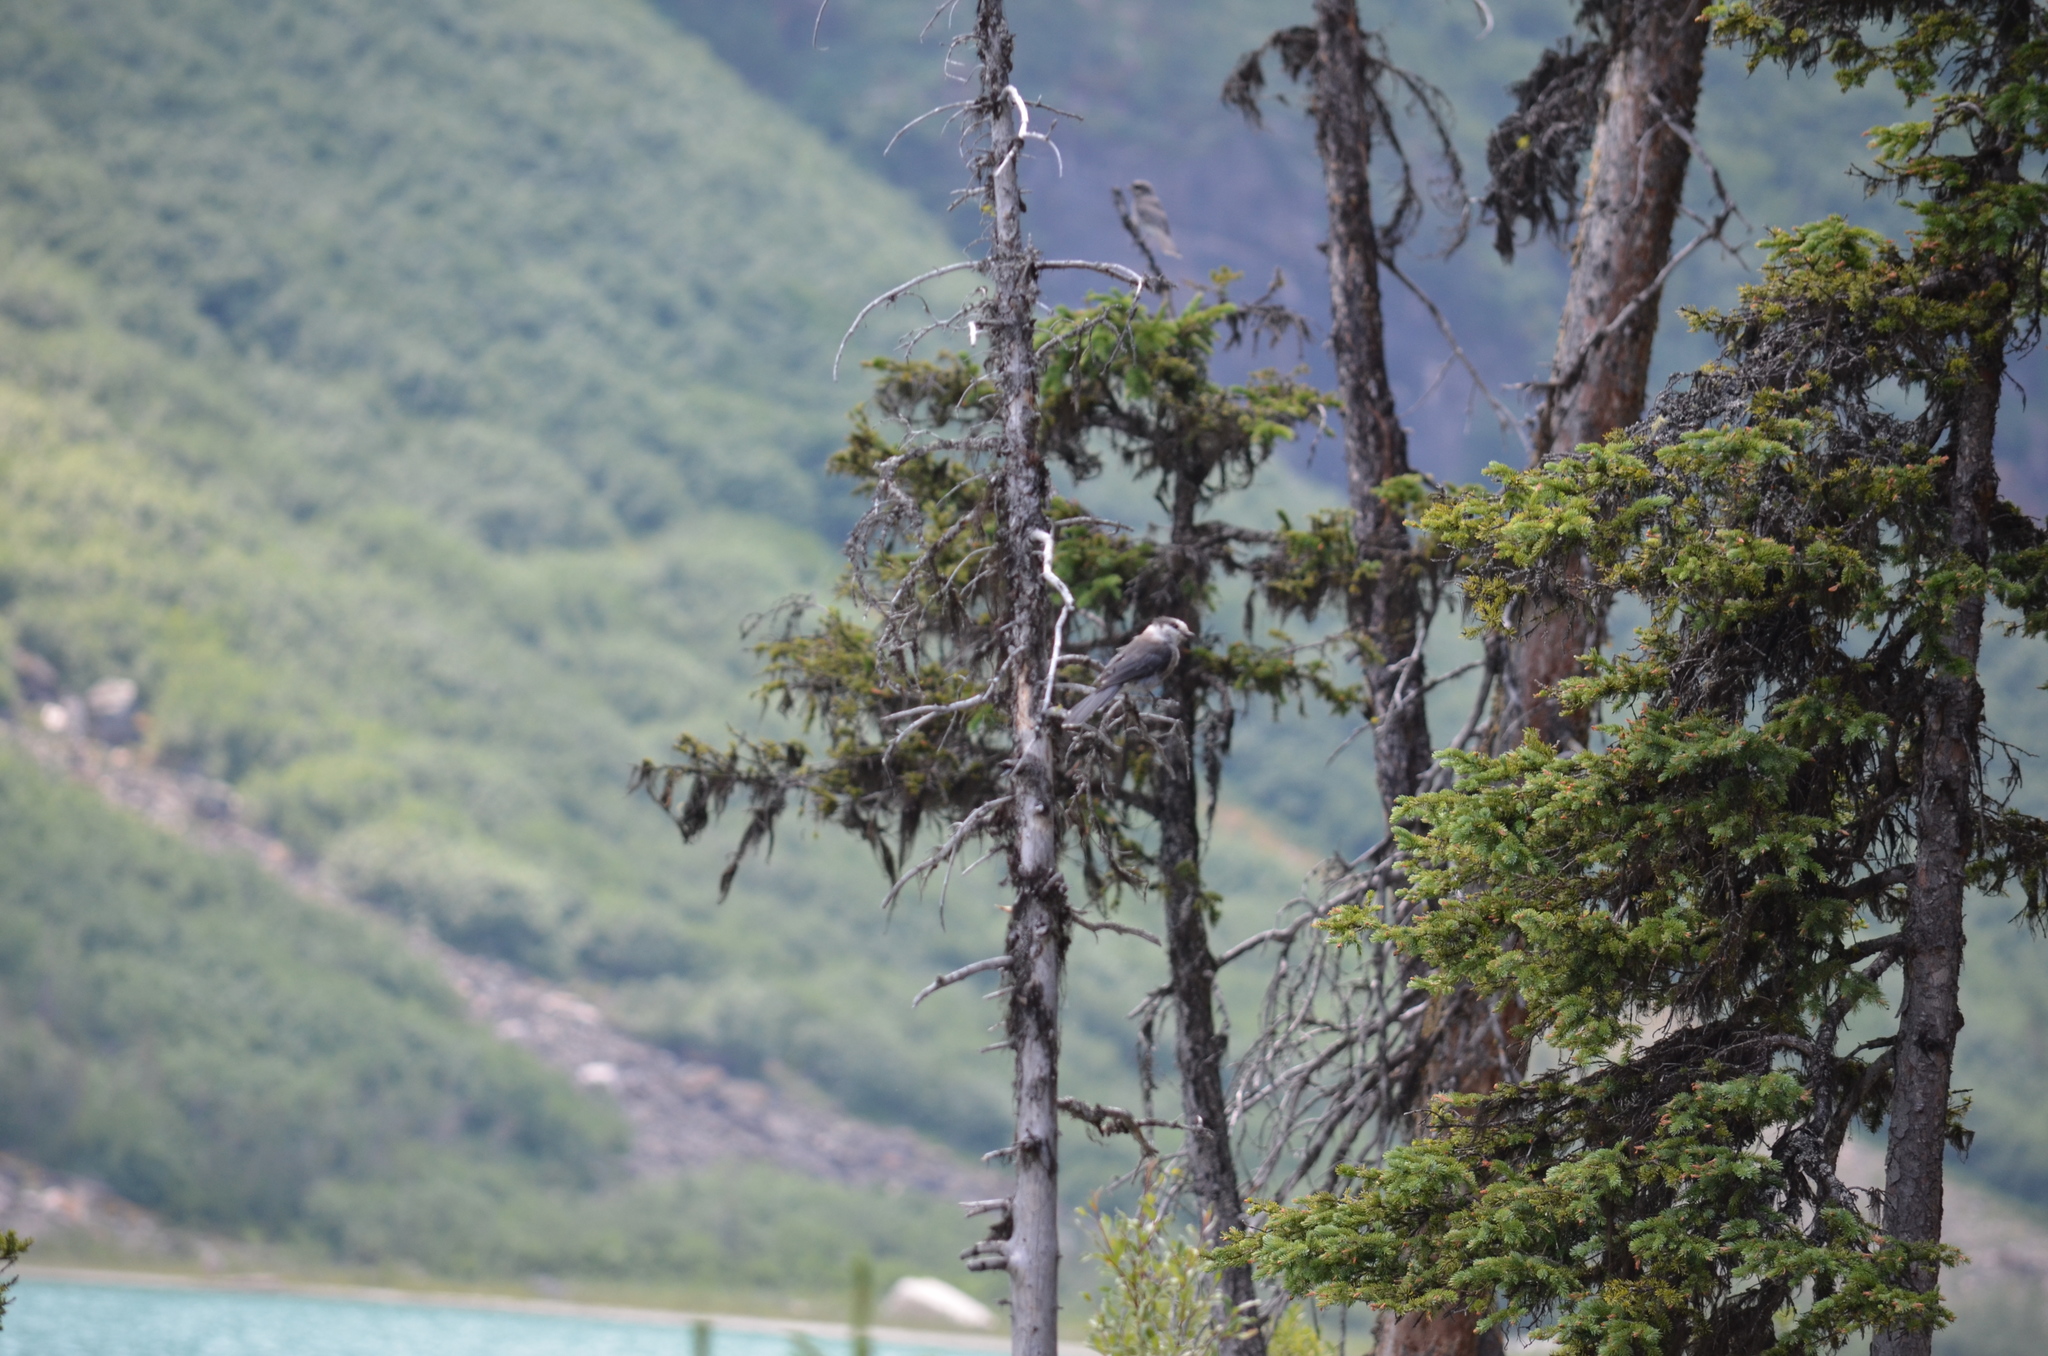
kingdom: Animalia
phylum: Chordata
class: Aves
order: Passeriformes
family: Corvidae
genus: Perisoreus
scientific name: Perisoreus canadensis
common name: Gray jay
